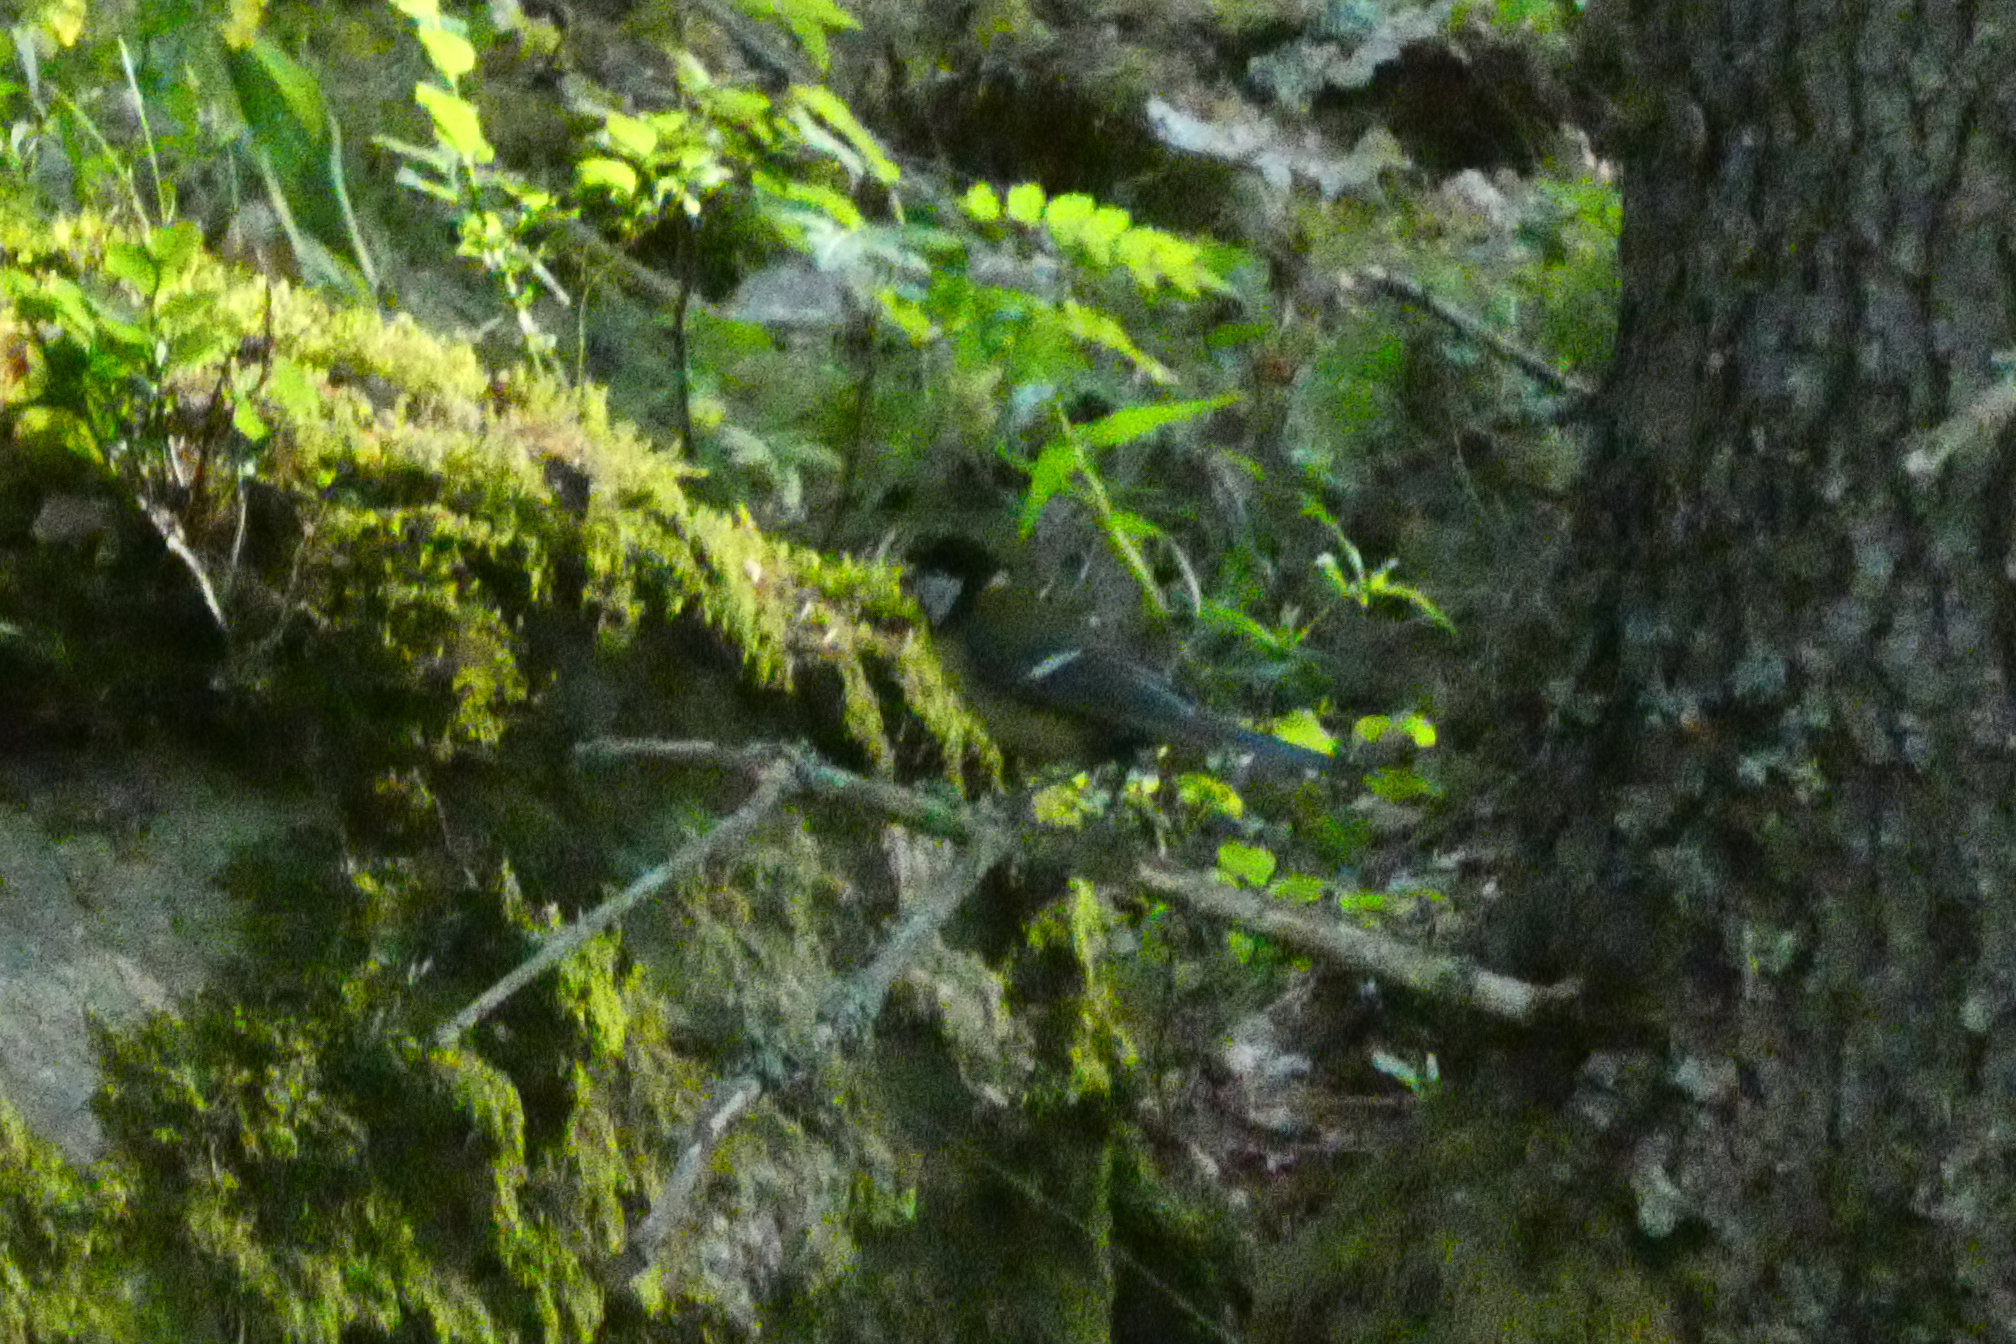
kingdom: Animalia
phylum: Chordata
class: Aves
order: Passeriformes
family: Paridae
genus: Parus
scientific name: Parus major
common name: Great tit
